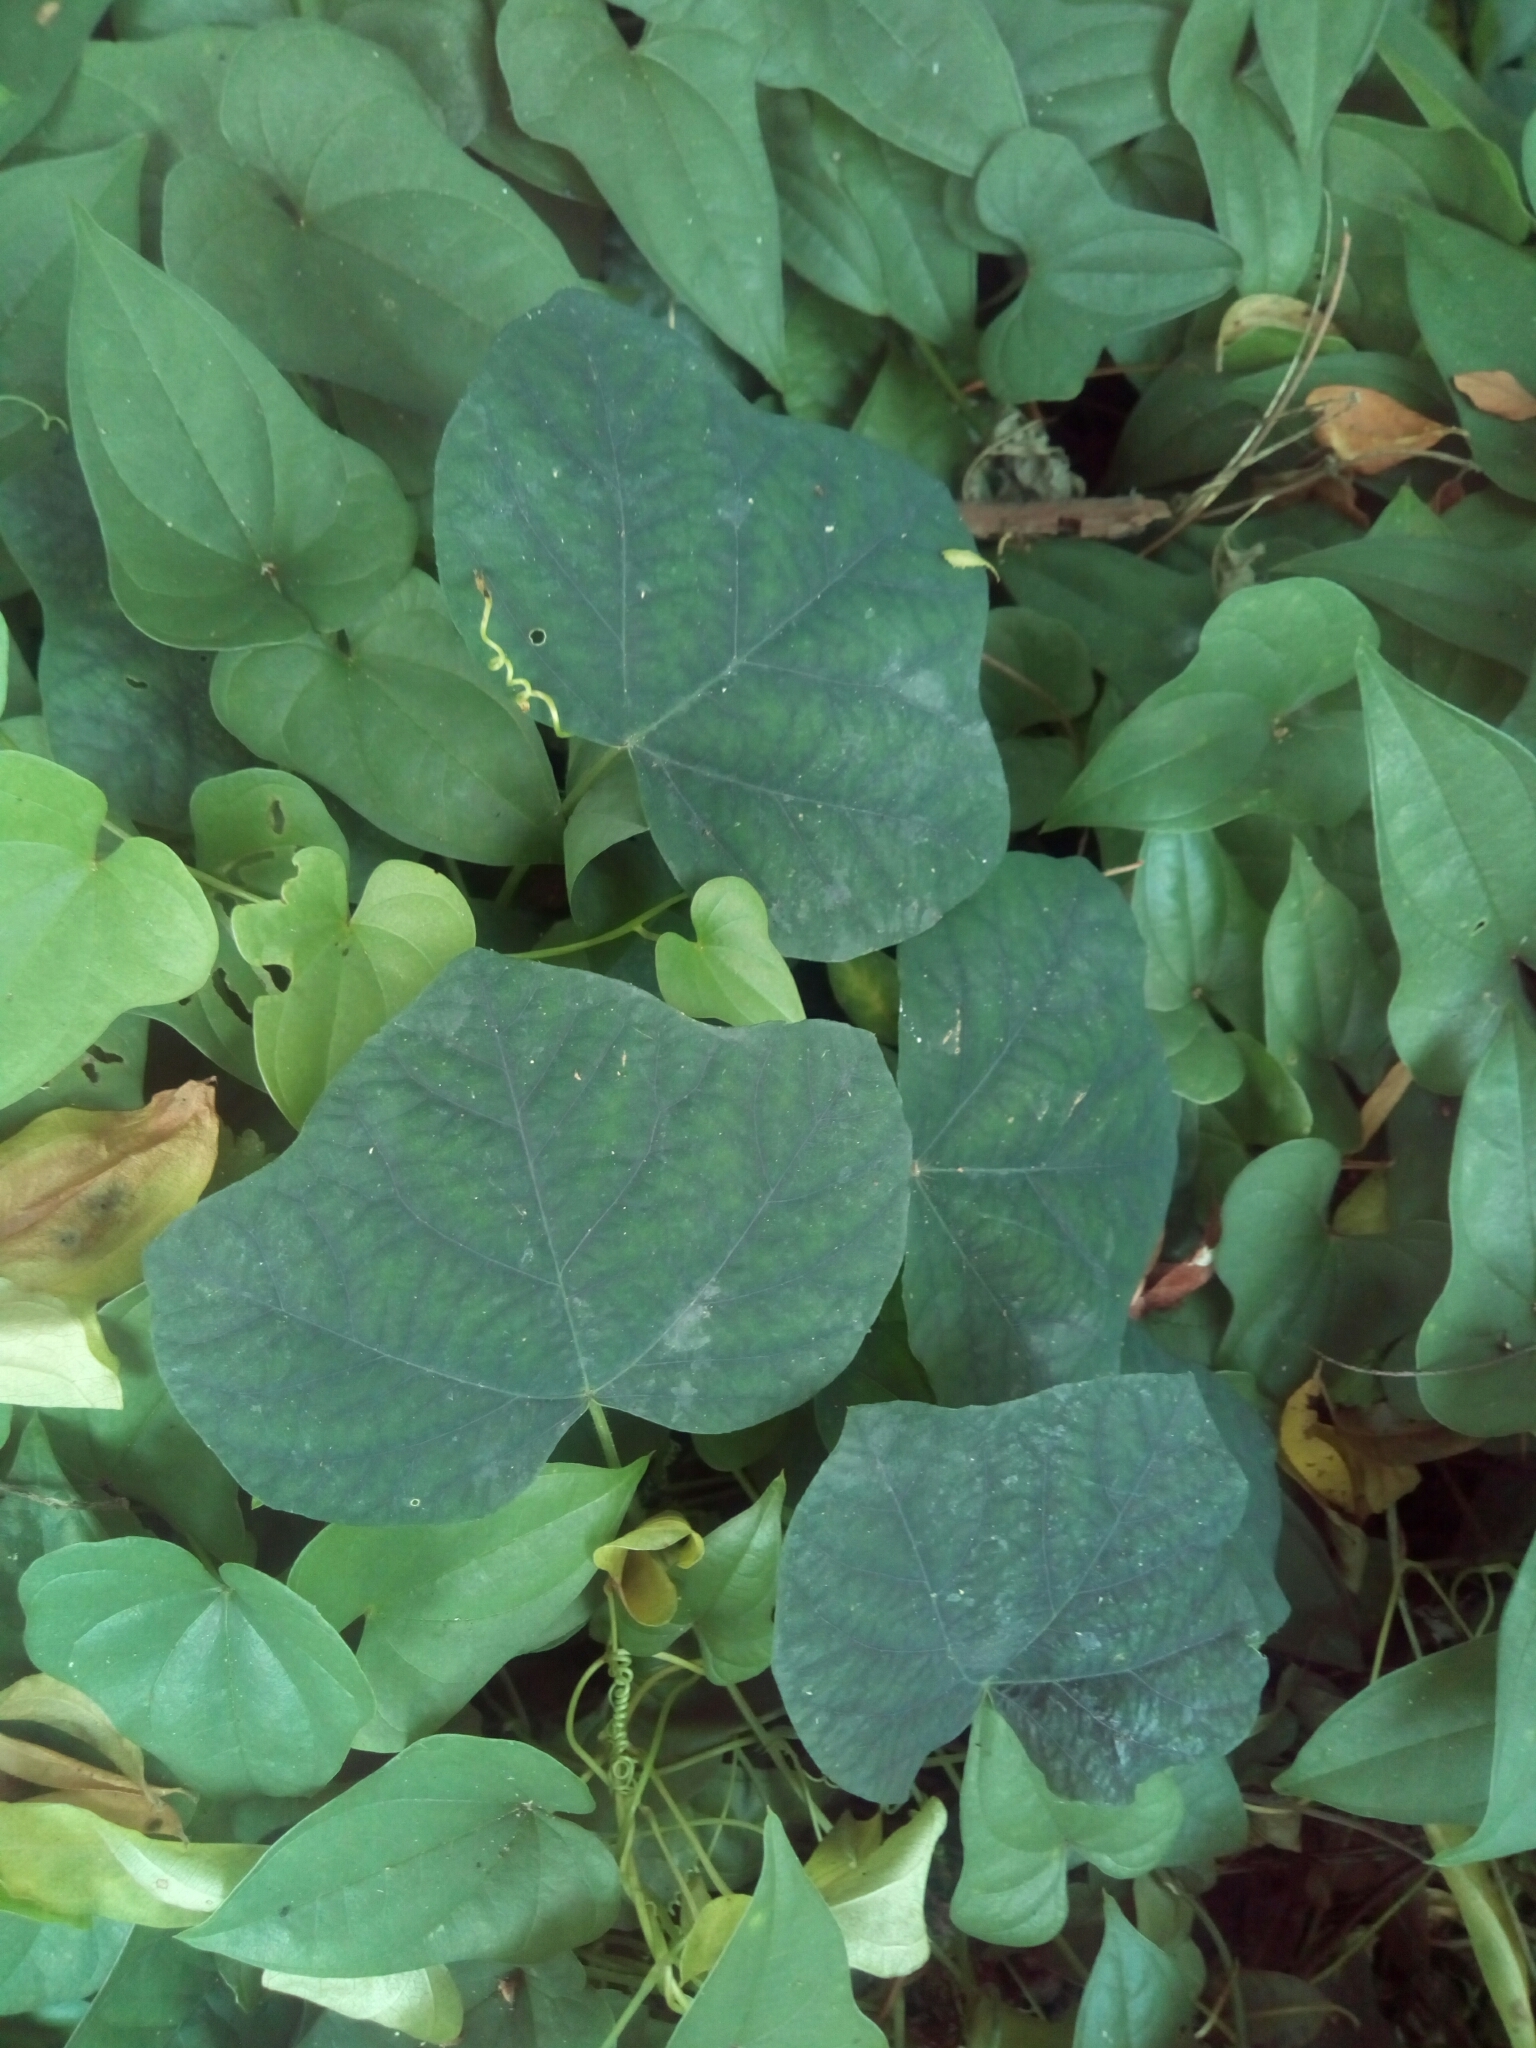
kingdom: Plantae
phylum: Tracheophyta
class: Magnoliopsida
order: Malpighiales
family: Passifloraceae
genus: Passiflora
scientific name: Passiflora lutea
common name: Yellow passionflower
